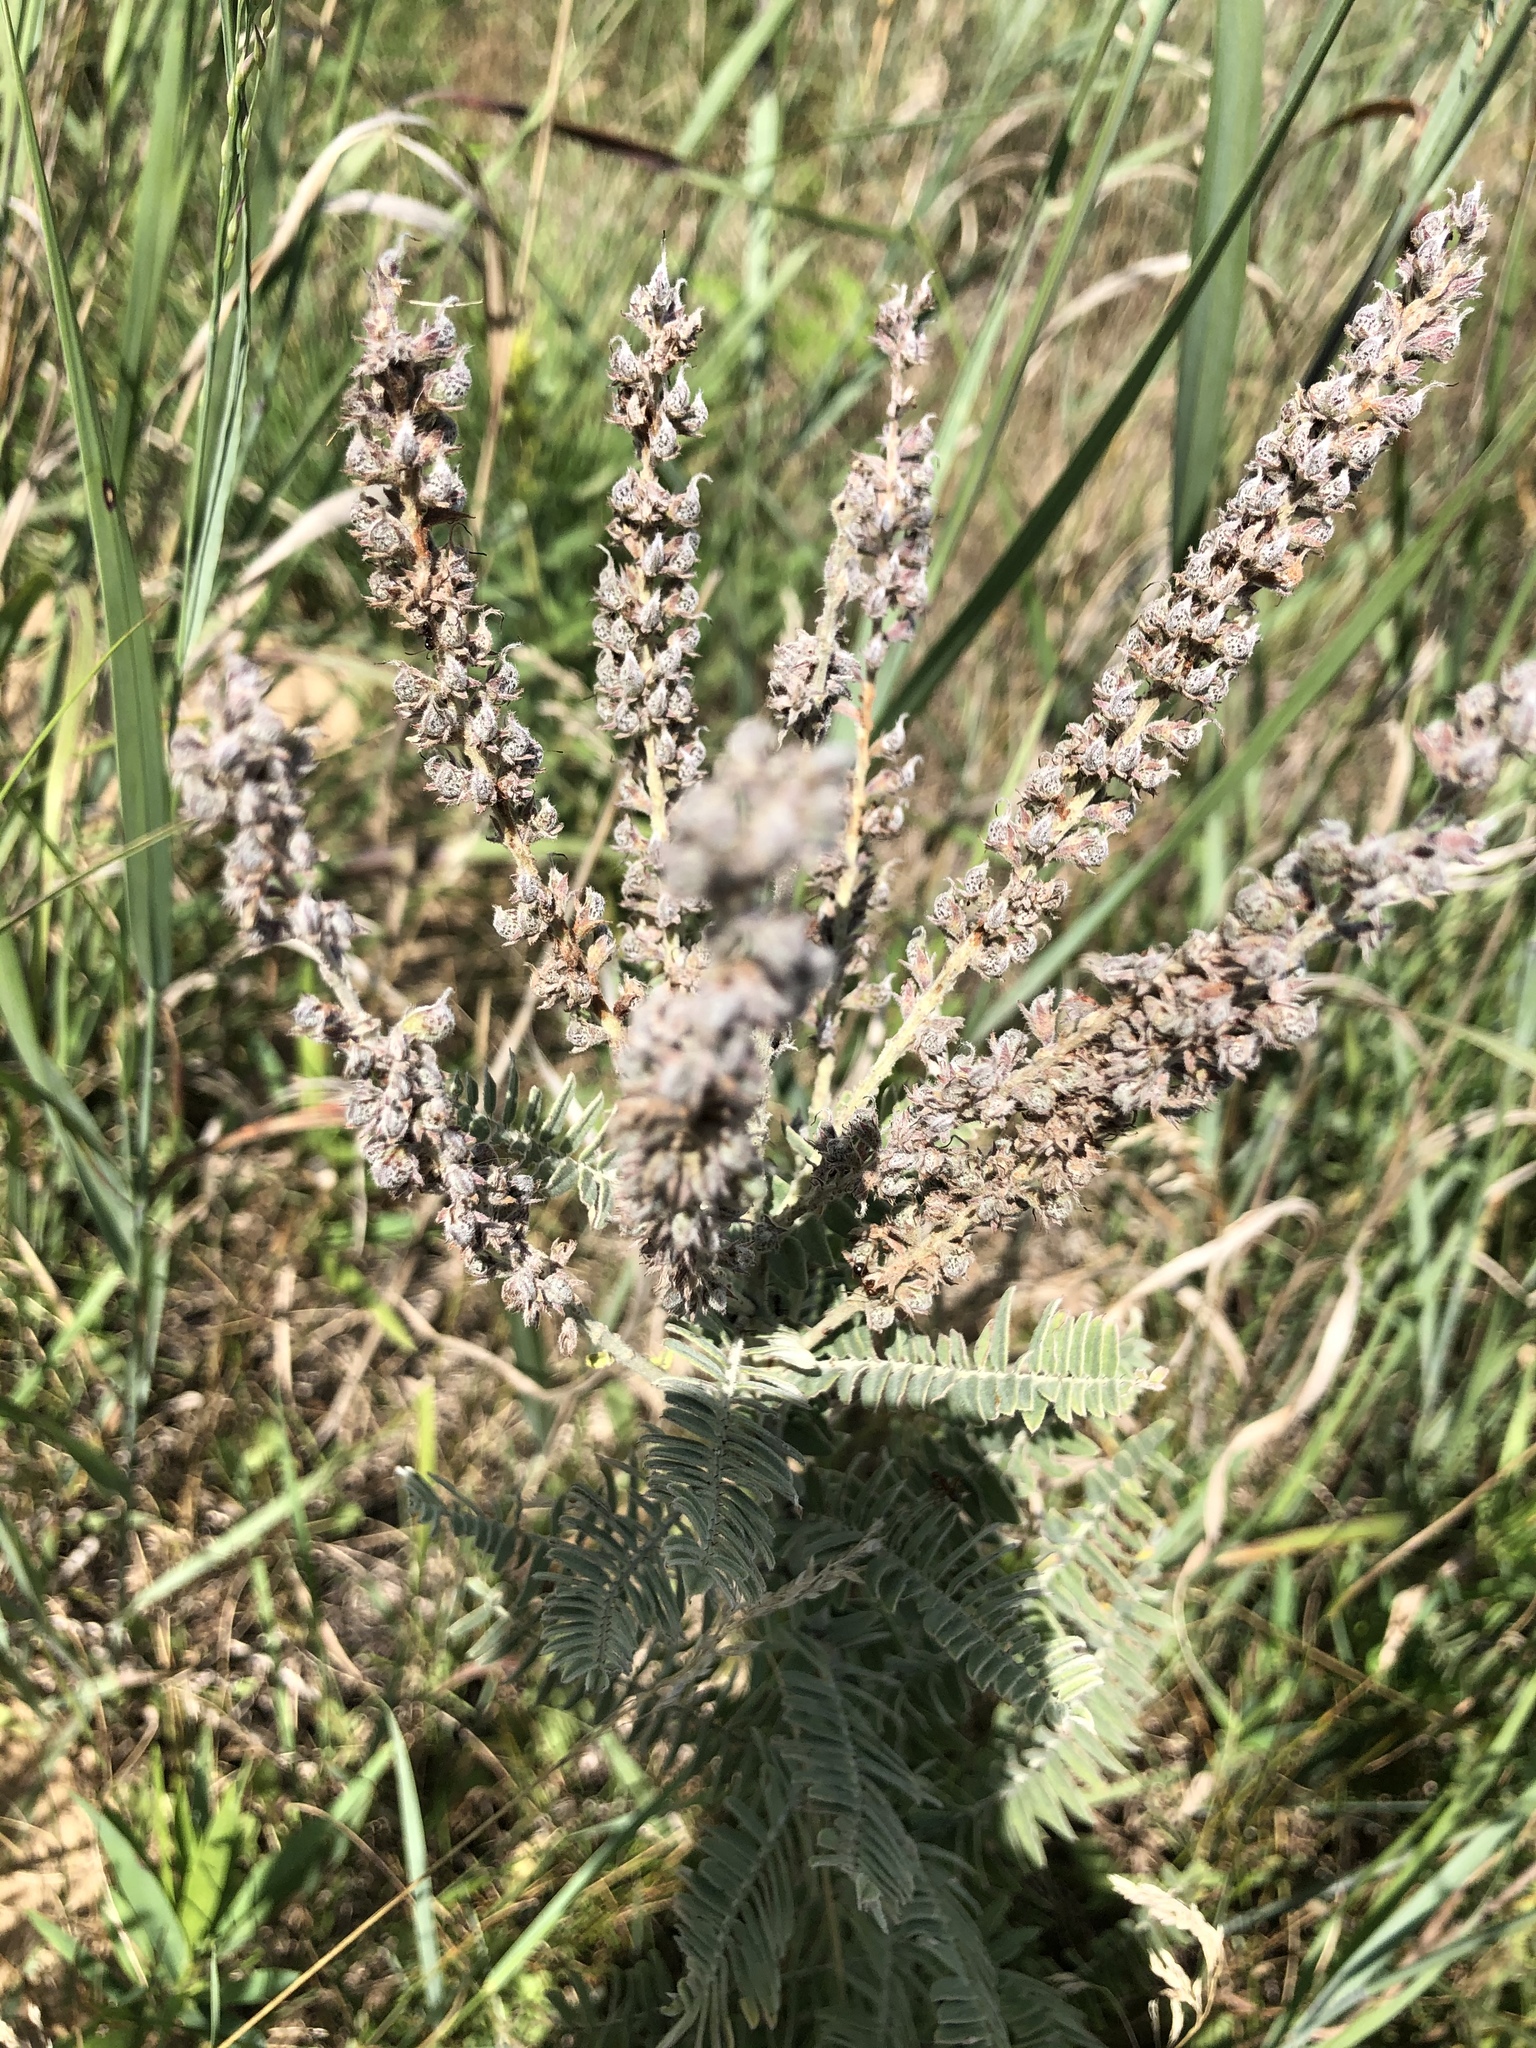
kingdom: Plantae
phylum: Tracheophyta
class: Magnoliopsida
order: Fabales
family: Fabaceae
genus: Amorpha
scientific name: Amorpha canescens
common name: Leadplant
